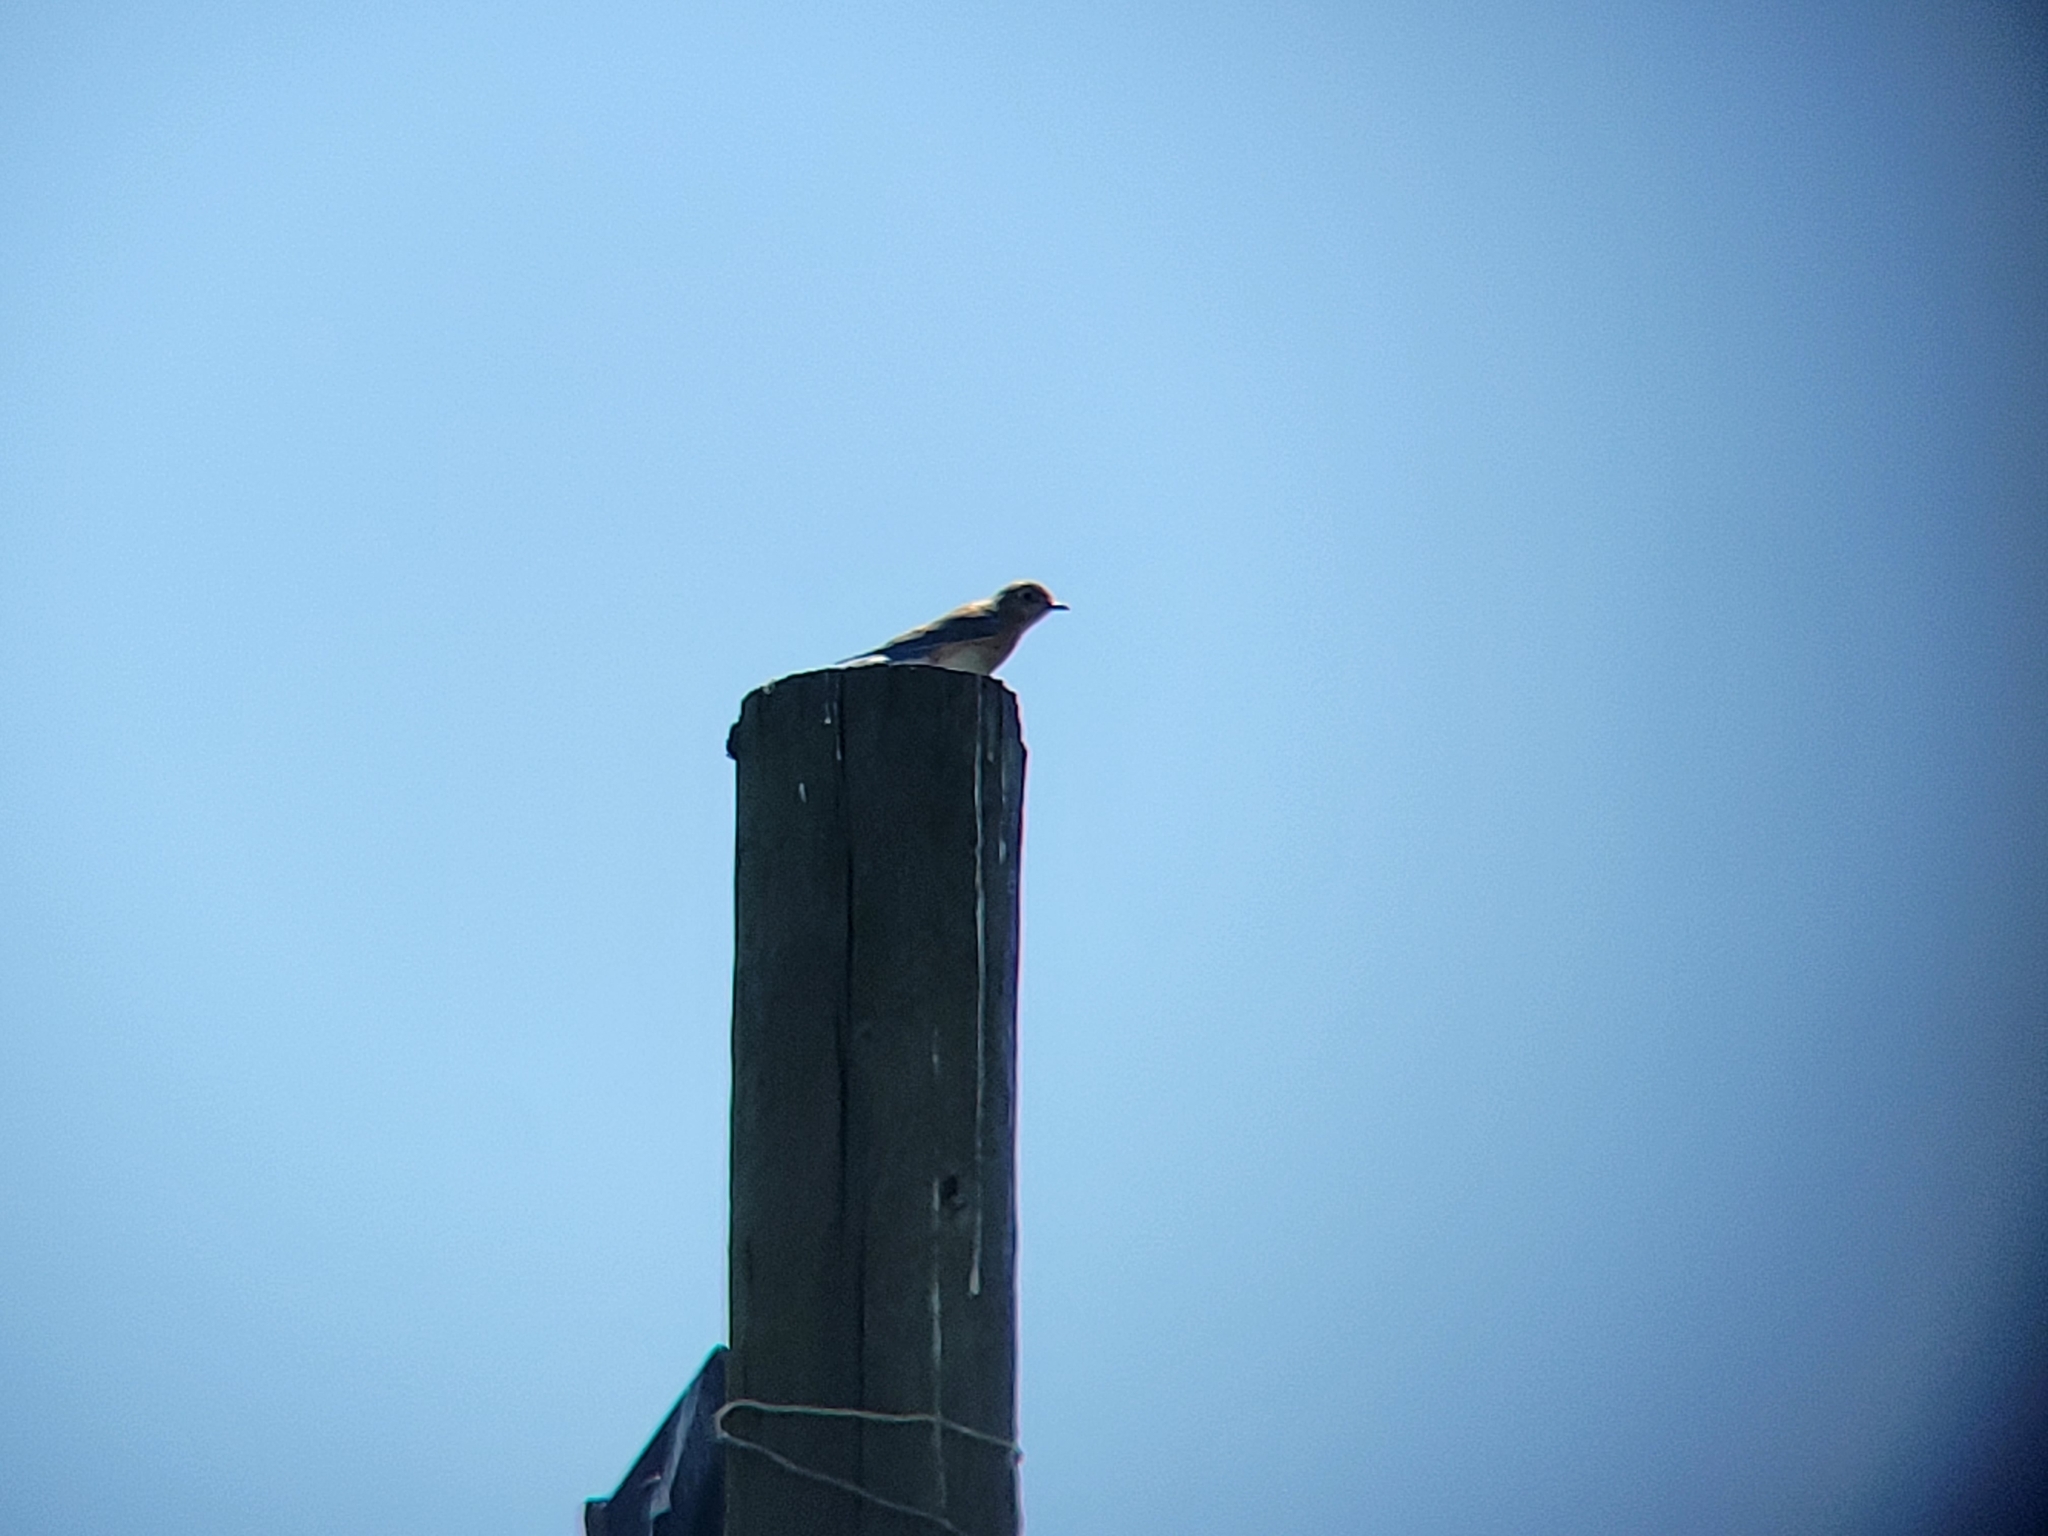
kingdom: Animalia
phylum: Chordata
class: Aves
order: Passeriformes
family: Turdidae
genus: Sialia
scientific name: Sialia sialis
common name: Eastern bluebird
